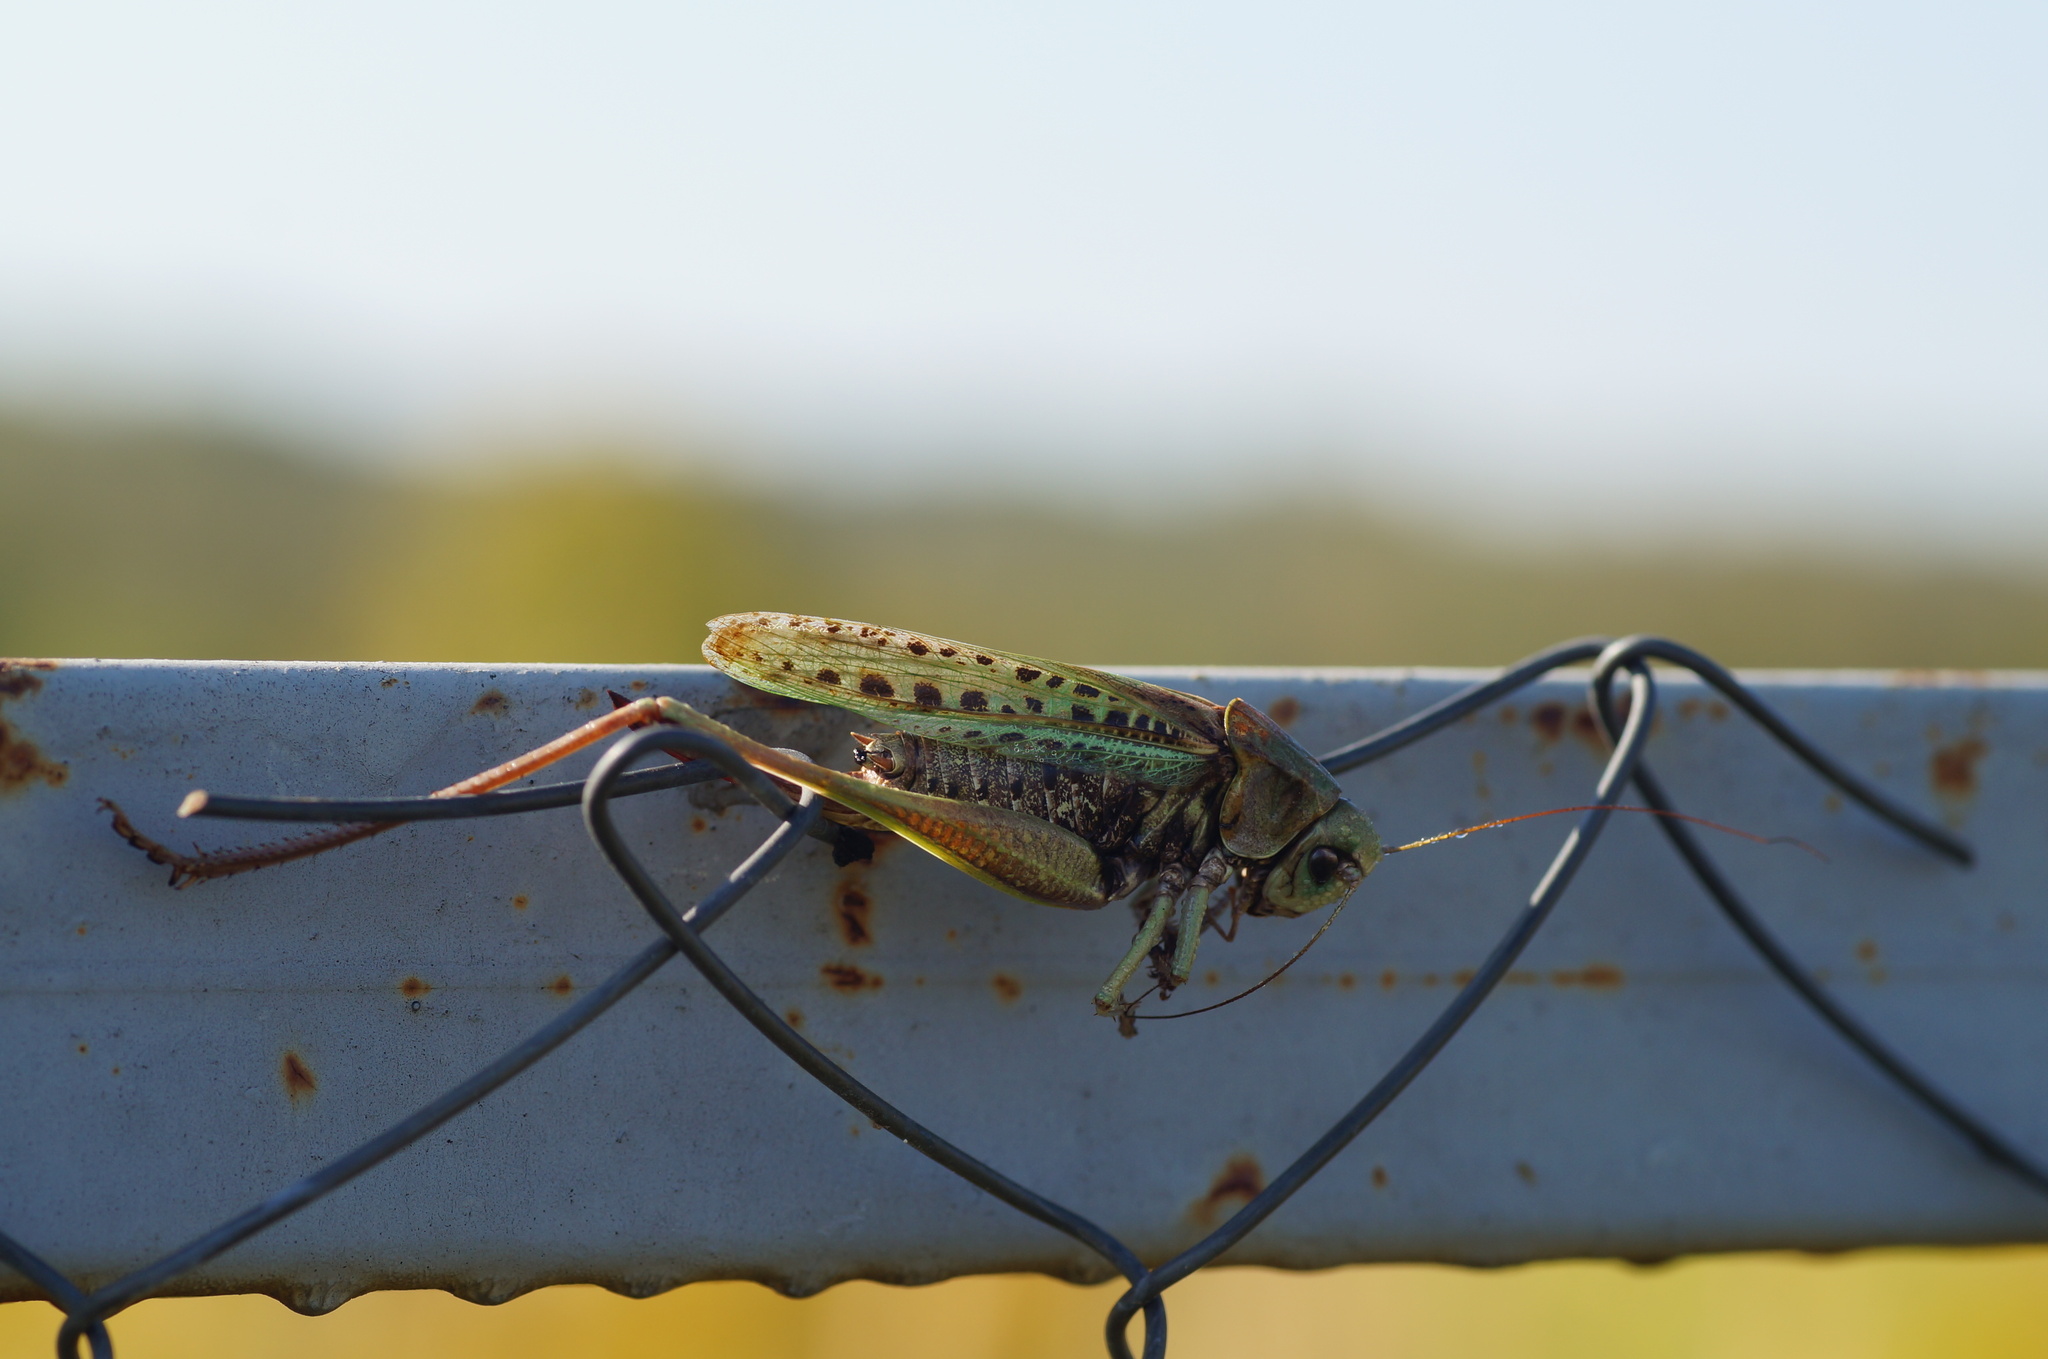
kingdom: Animalia
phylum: Arthropoda
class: Insecta
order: Orthoptera
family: Tettigoniidae
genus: Decticus
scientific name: Decticus verrucivorus
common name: Wart-biter
